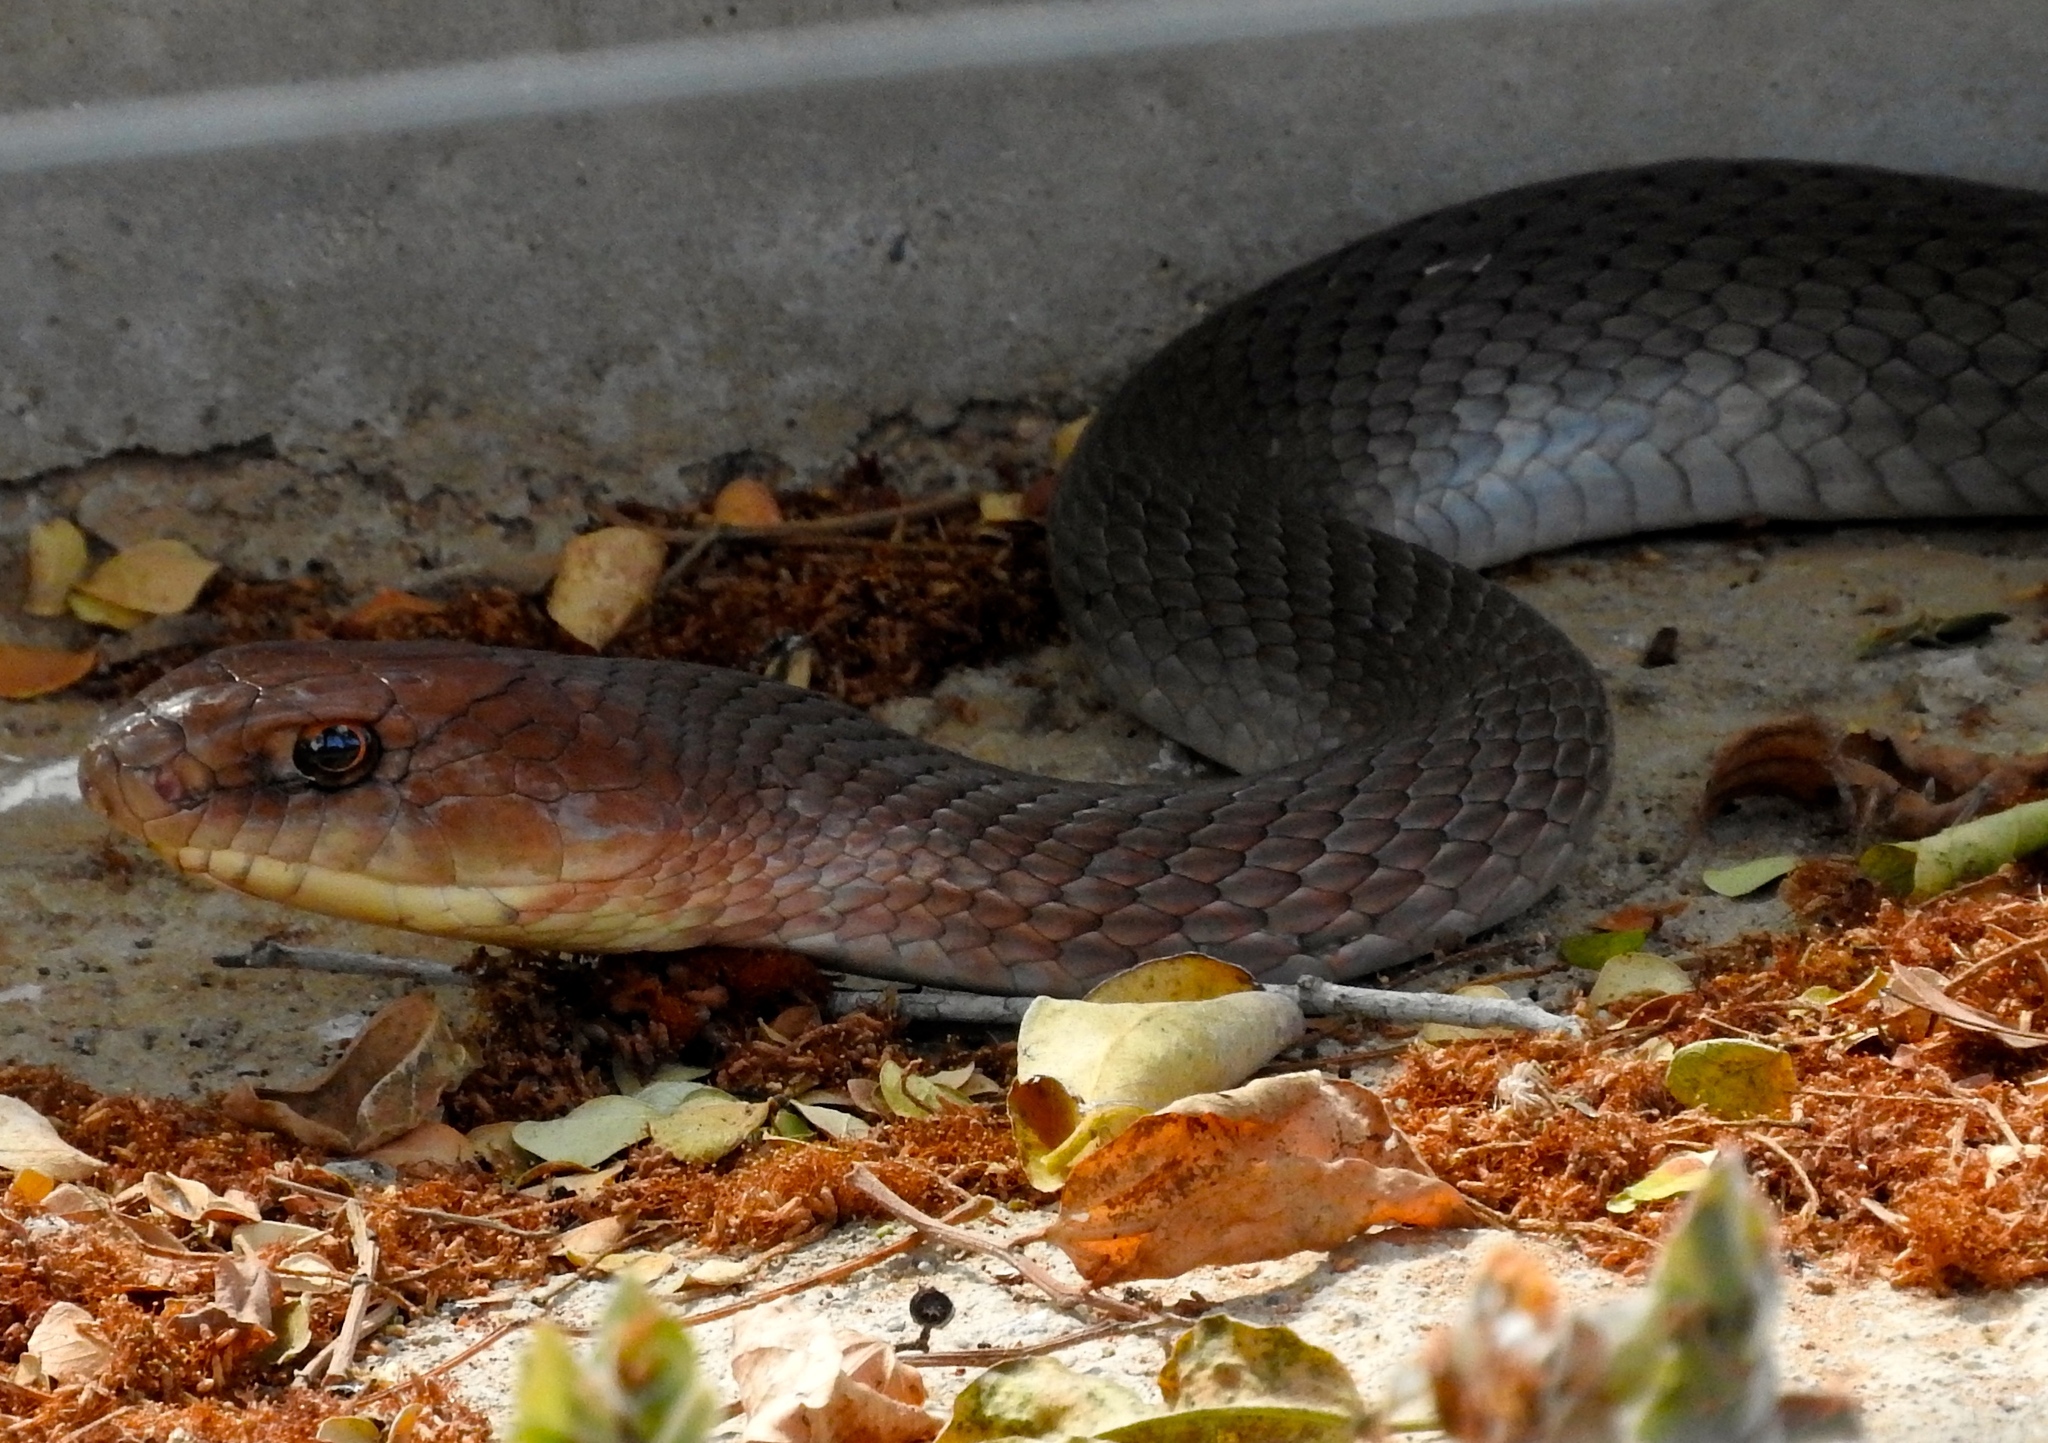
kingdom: Animalia
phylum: Chordata
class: Squamata
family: Colubridae
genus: Masticophis
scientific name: Masticophis mentovarius
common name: Neotropical whip snake
